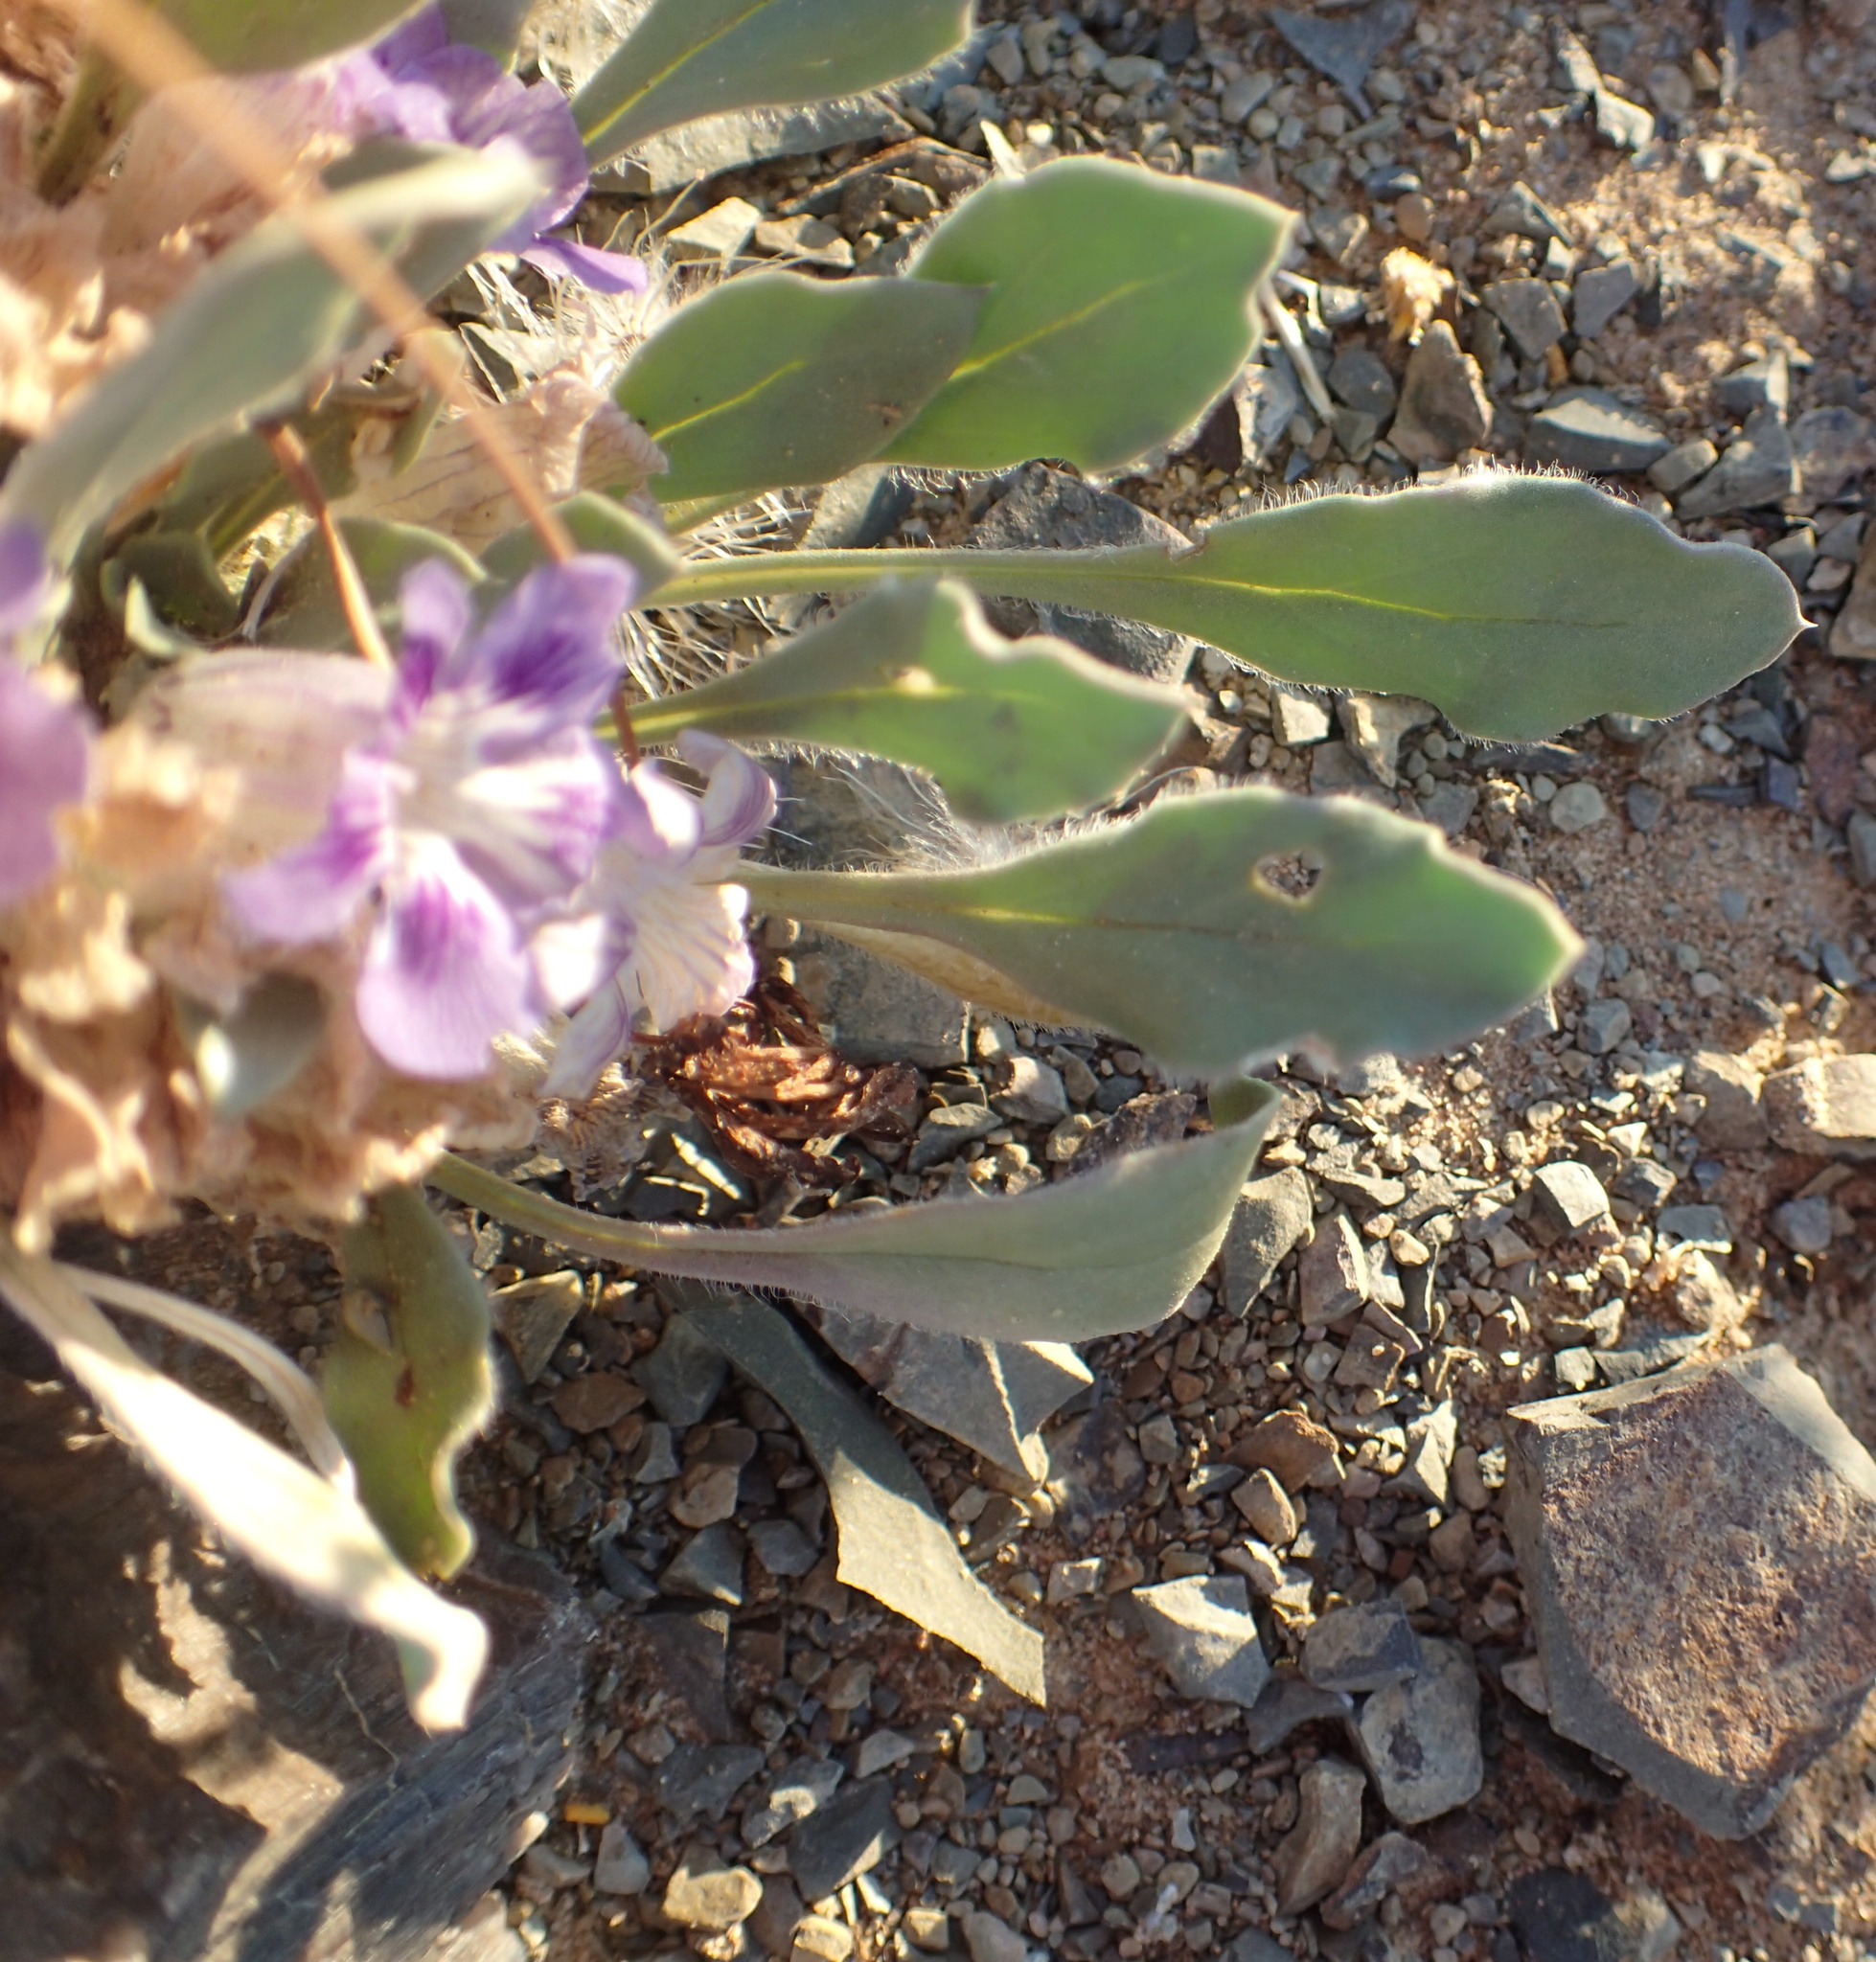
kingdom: Plantae
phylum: Tracheophyta
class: Magnoliopsida
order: Lamiales
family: Scrophulariaceae
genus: Aptosimum
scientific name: Aptosimum indivisum
